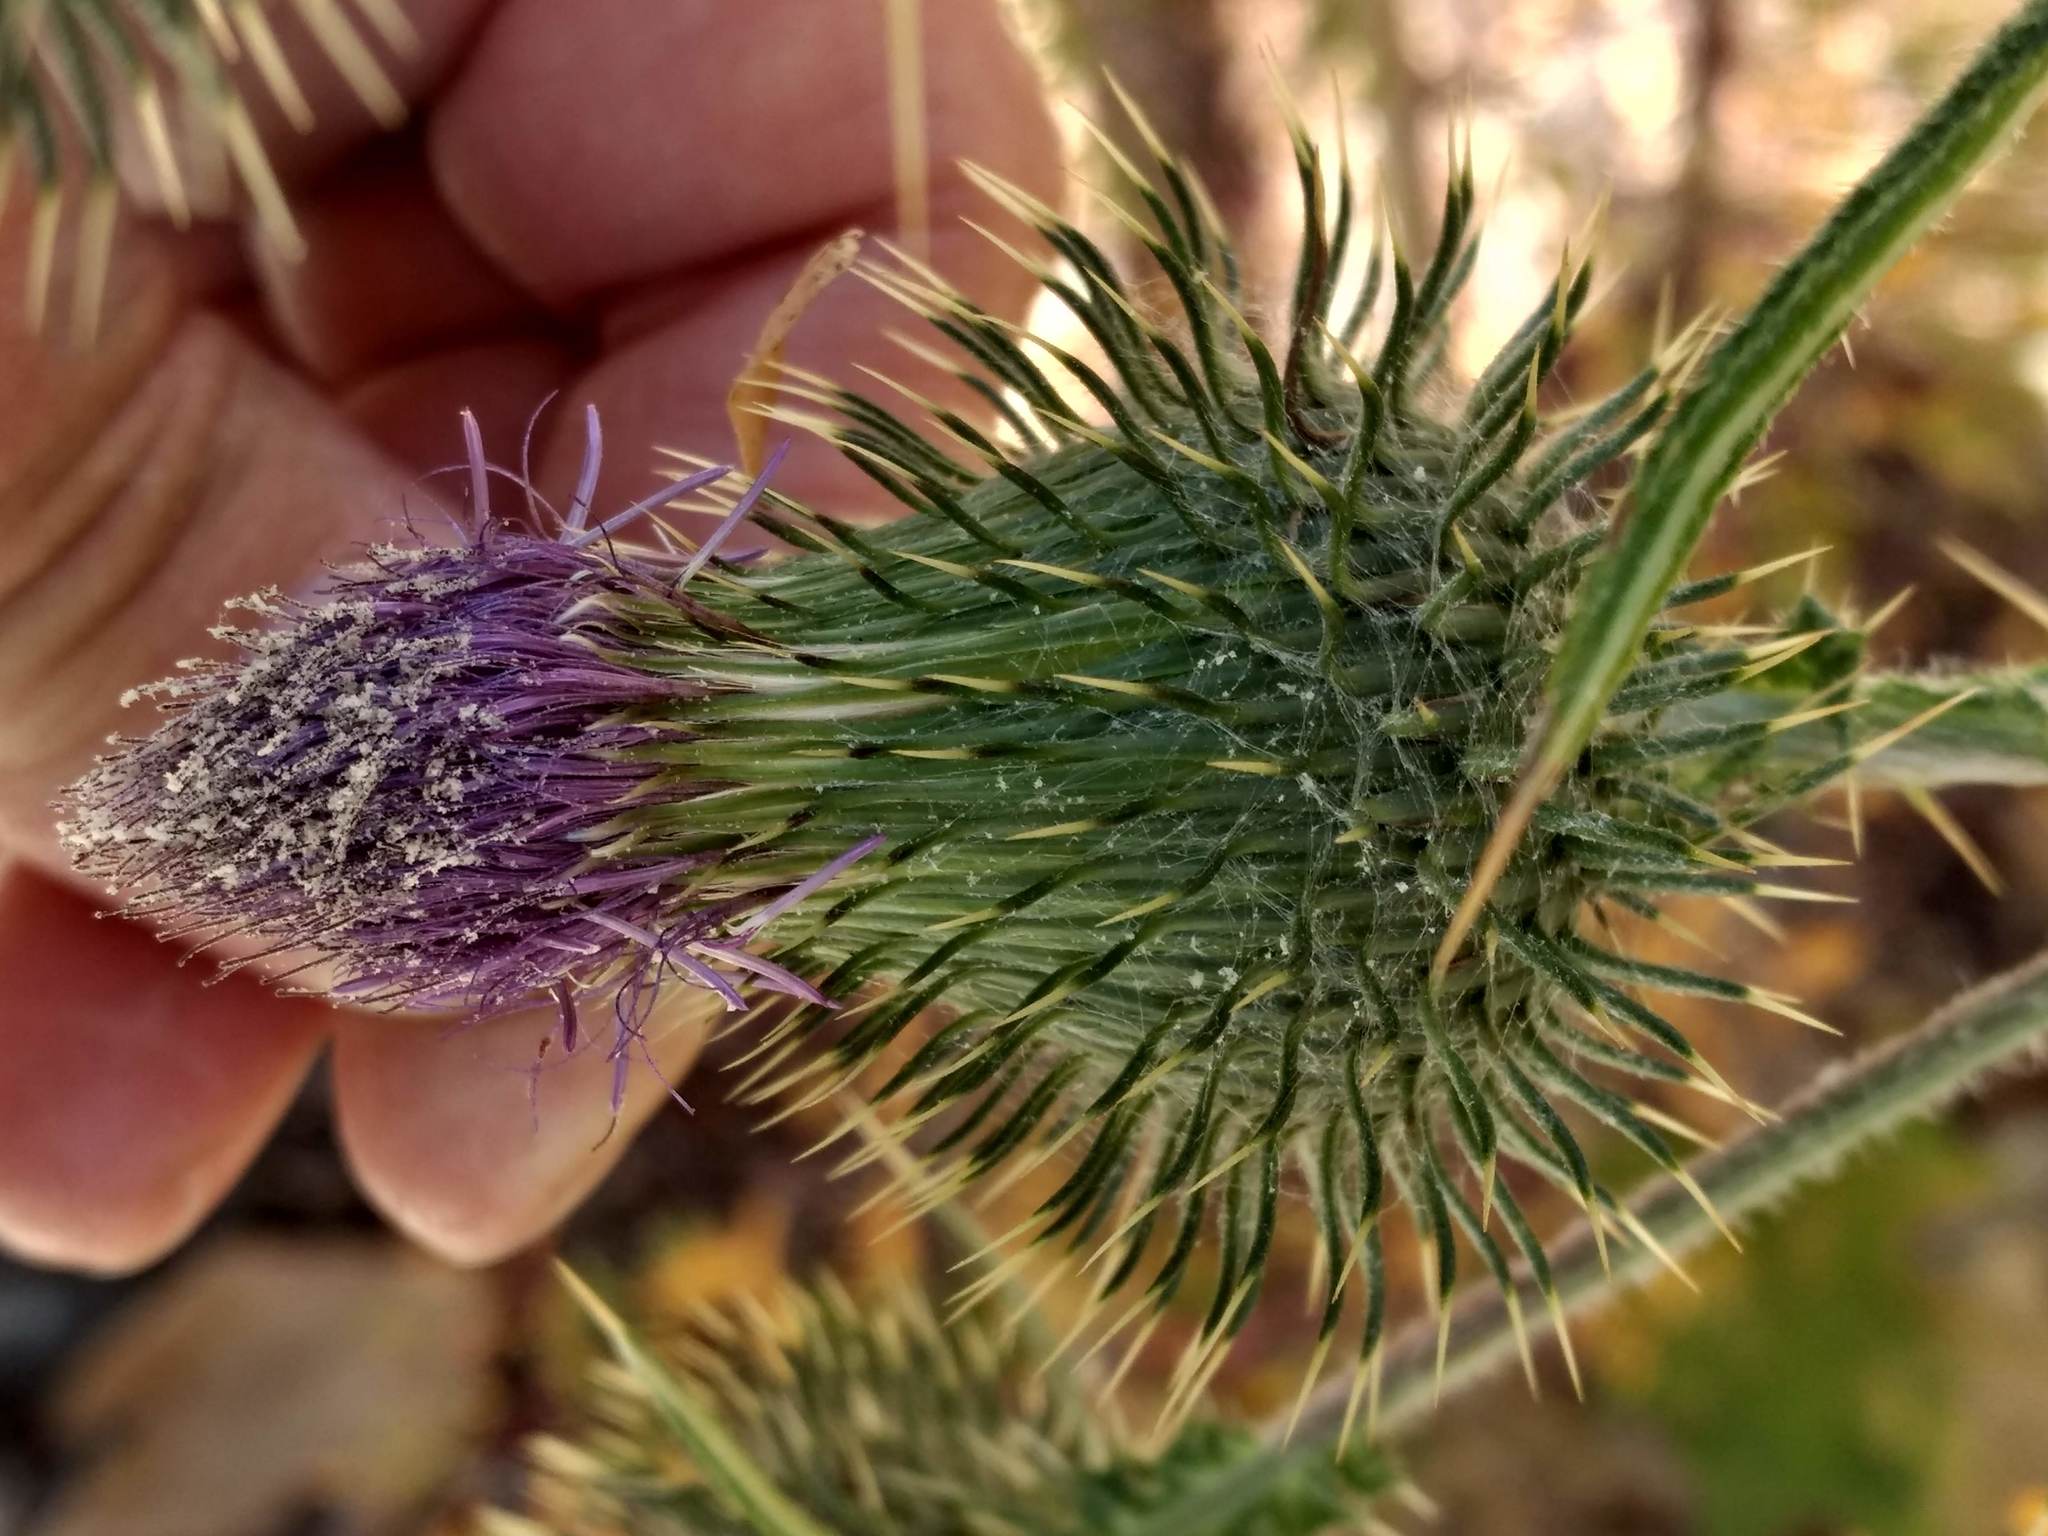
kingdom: Plantae
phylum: Tracheophyta
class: Magnoliopsida
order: Asterales
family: Asteraceae
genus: Cirsium
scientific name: Cirsium vulgare
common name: Bull thistle
